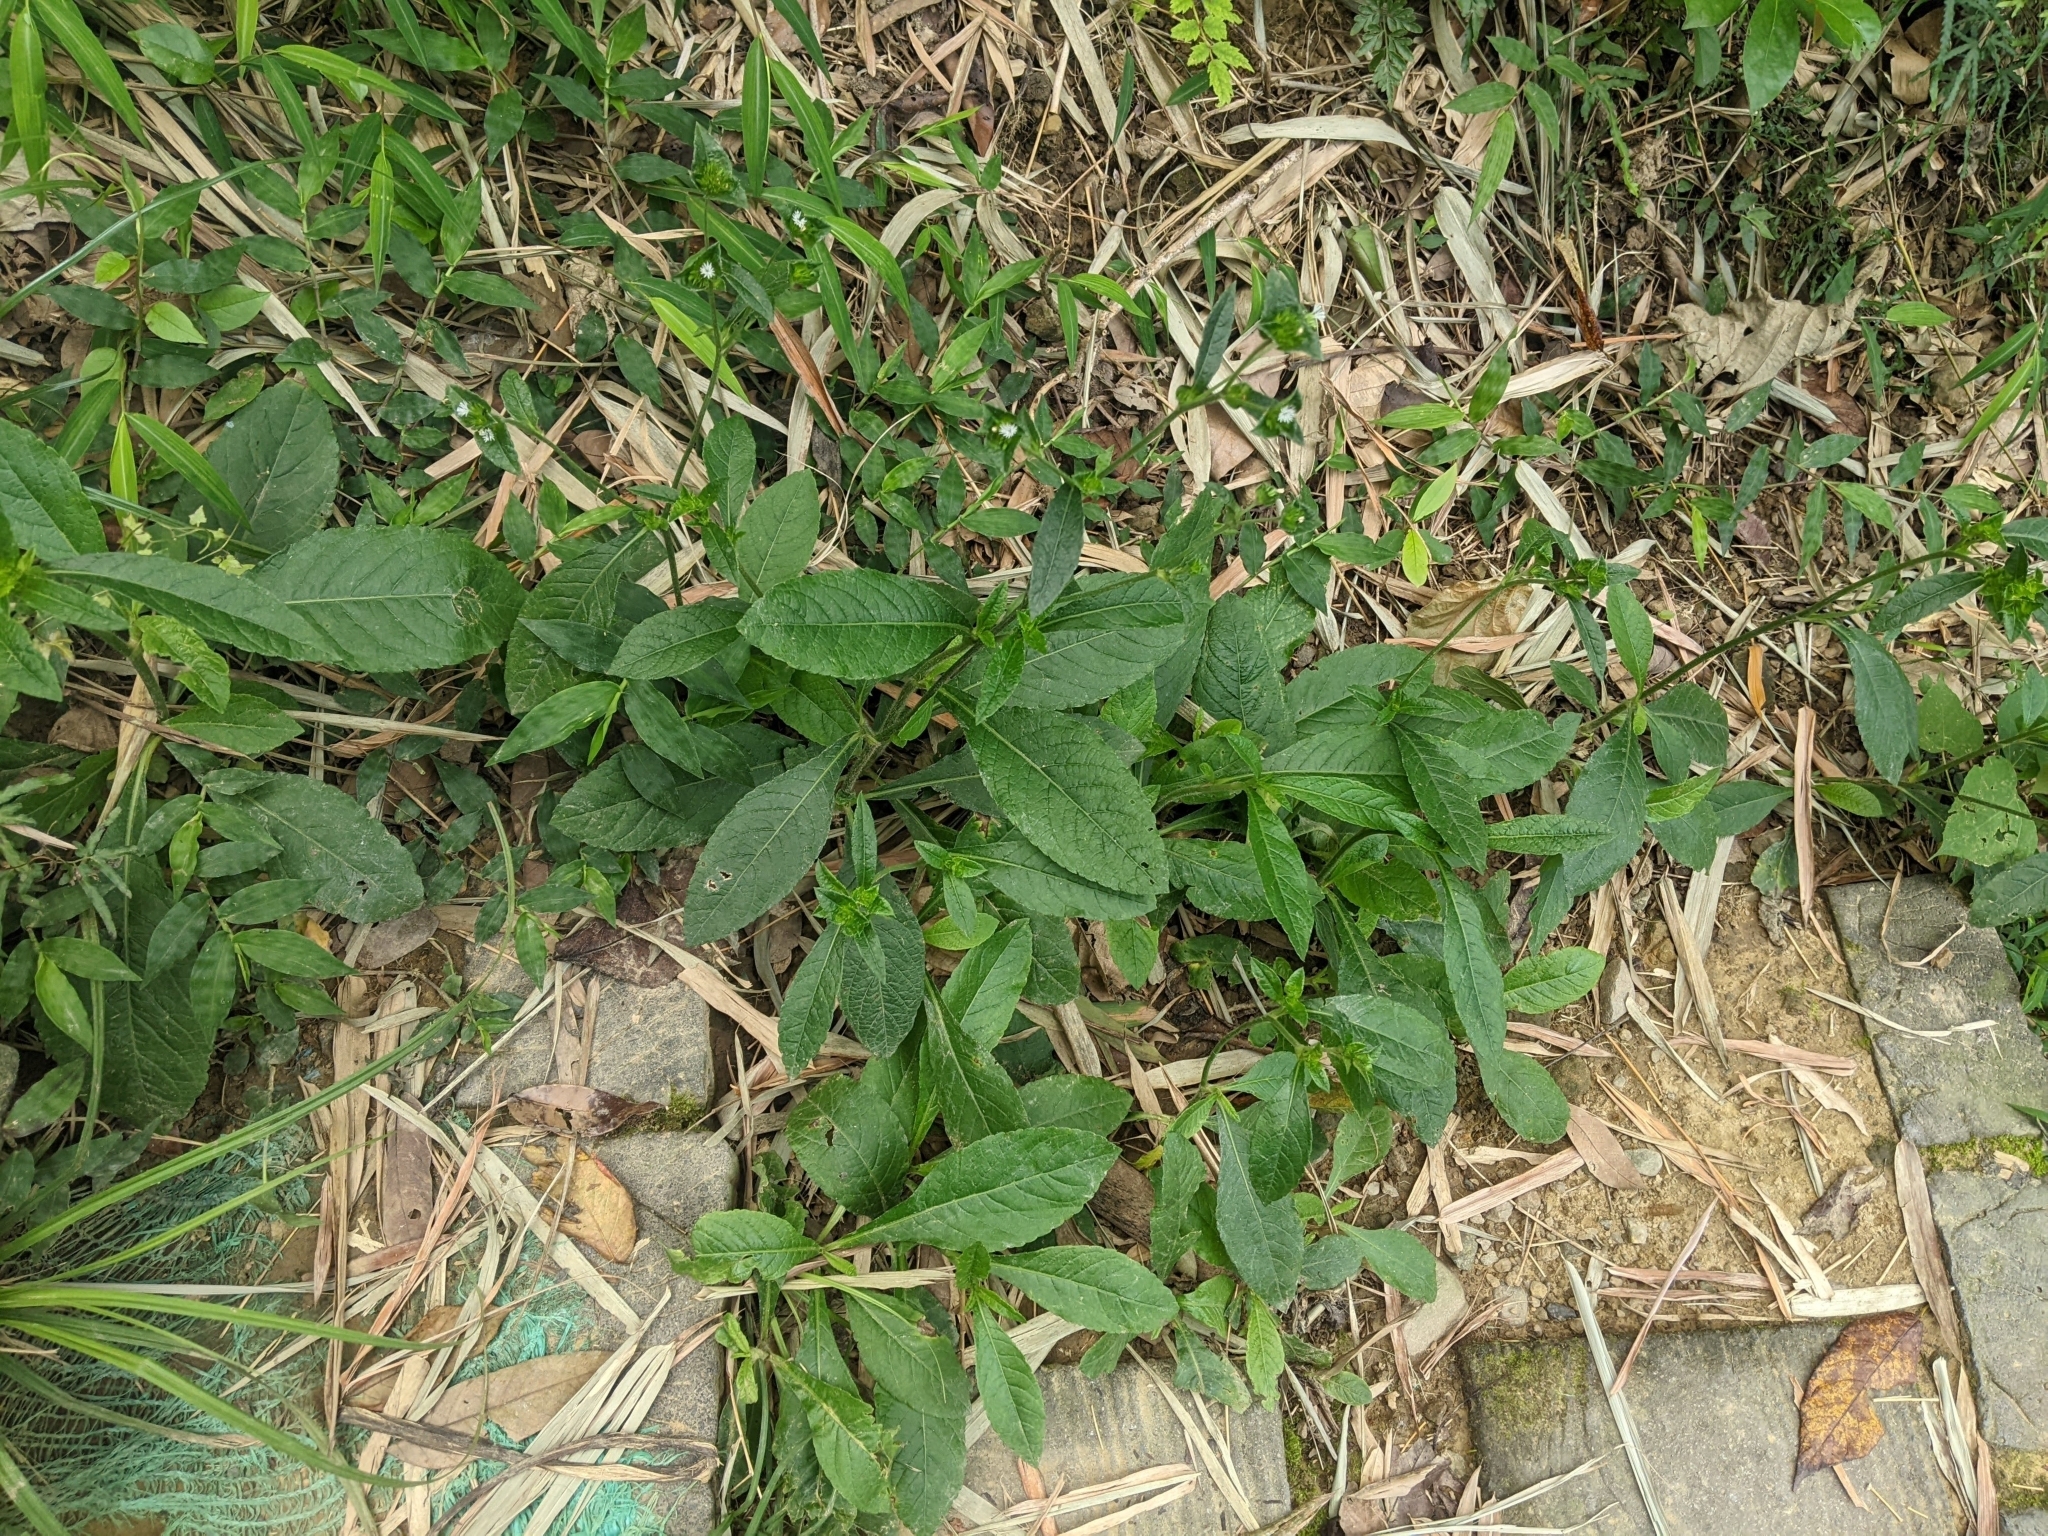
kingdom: Plantae
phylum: Tracheophyta
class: Magnoliopsida
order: Asterales
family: Asteraceae
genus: Elephantopus
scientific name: Elephantopus mollis
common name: Soft elephantsfoot
